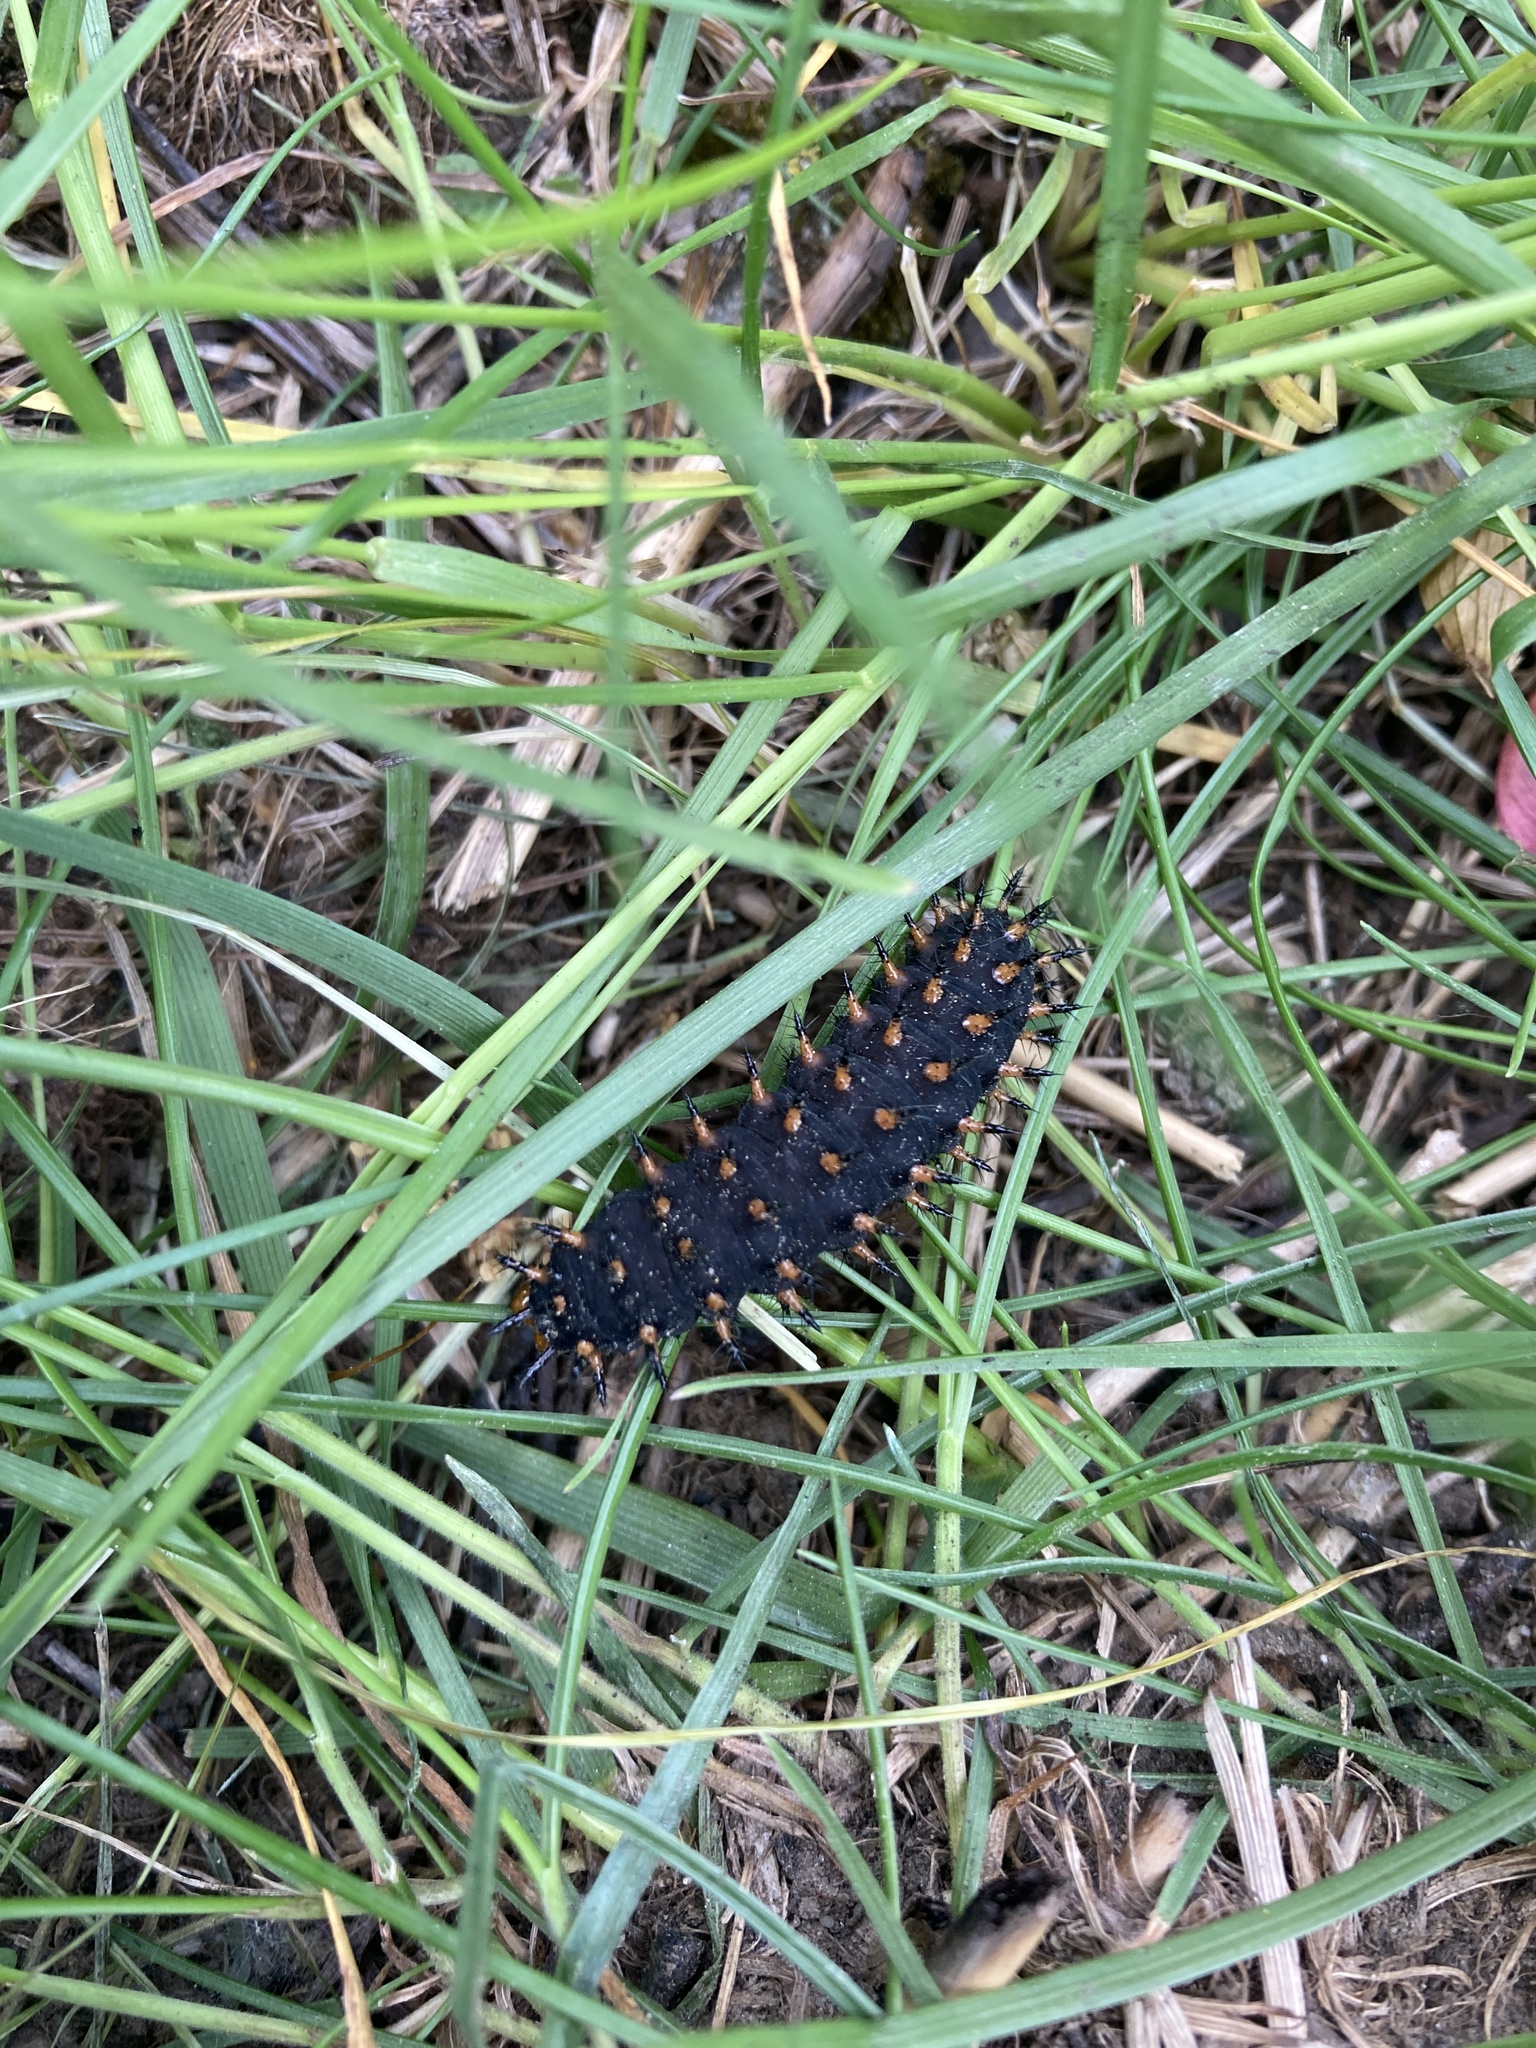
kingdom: Animalia
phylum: Arthropoda
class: Insecta
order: Lepidoptera
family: Nymphalidae
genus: Speyeria
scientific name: Speyeria cybele
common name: Great spangled fritillary
